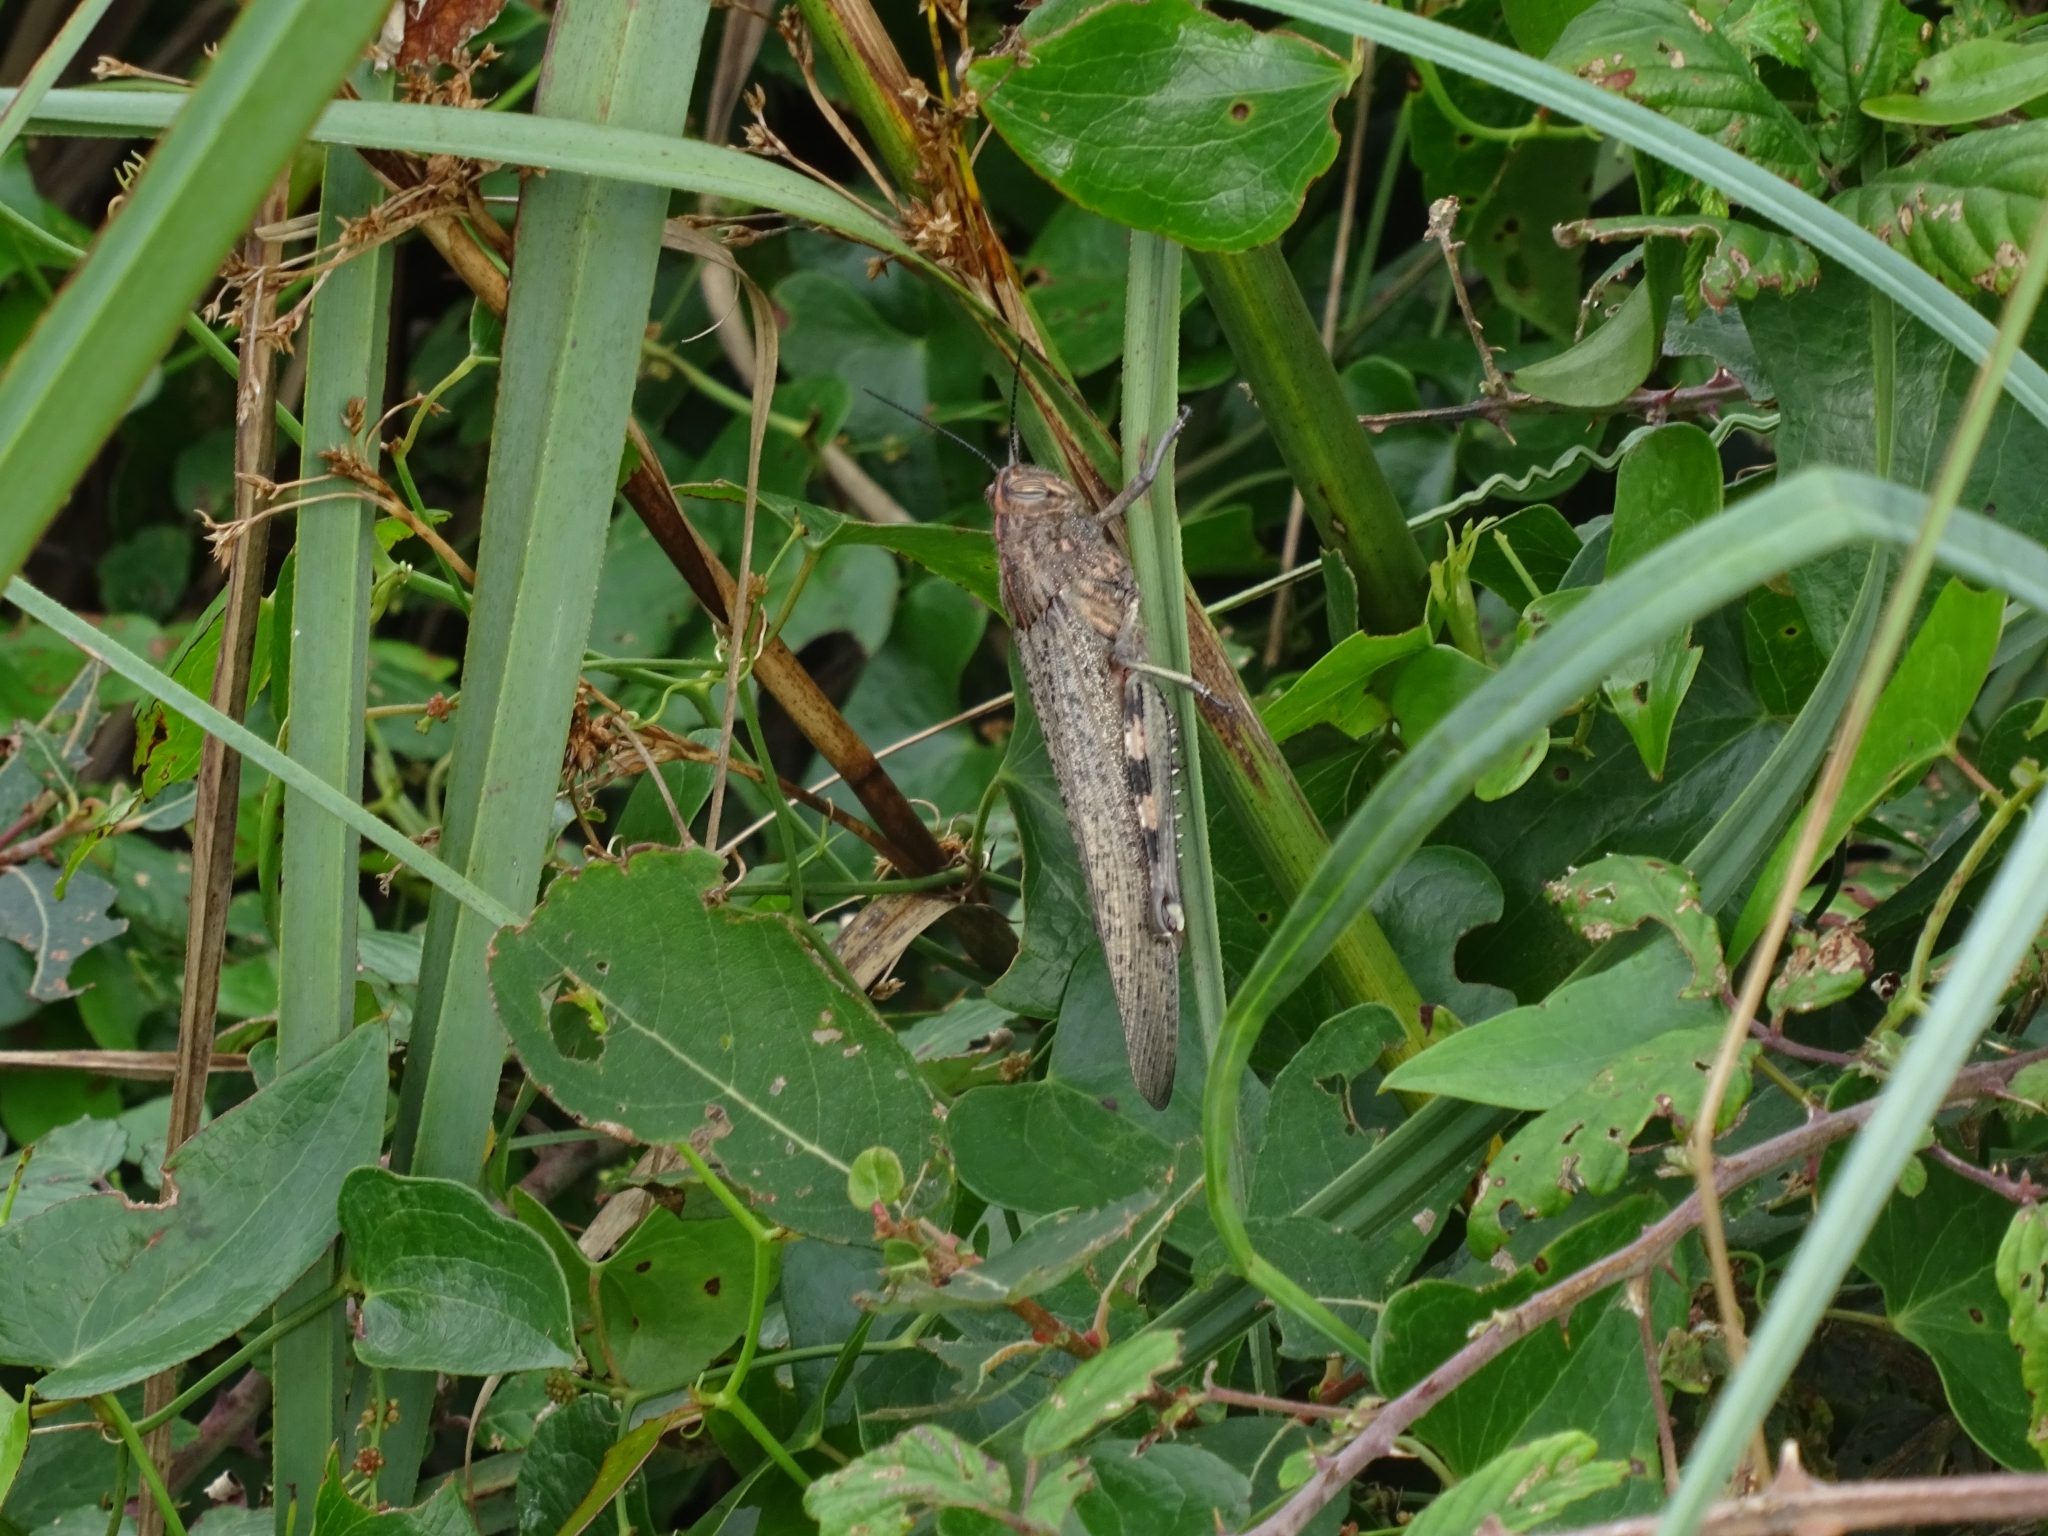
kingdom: Animalia
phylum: Arthropoda
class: Insecta
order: Orthoptera
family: Acrididae
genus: Anacridium
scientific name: Anacridium aegyptium
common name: Egyptian grasshopper
